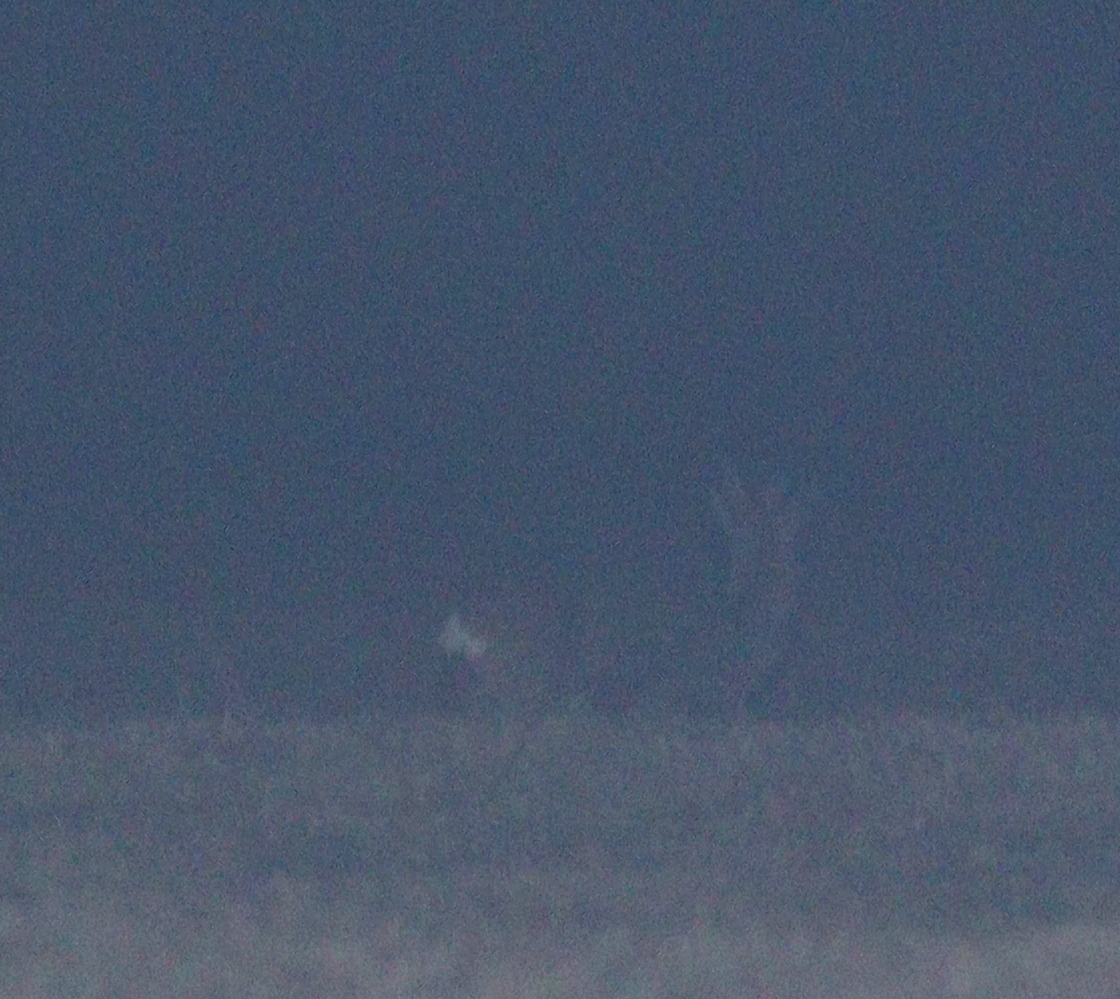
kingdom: Animalia
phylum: Chordata
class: Mammalia
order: Artiodactyla
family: Cervidae
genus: Capreolus
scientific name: Capreolus capreolus
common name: Western roe deer
